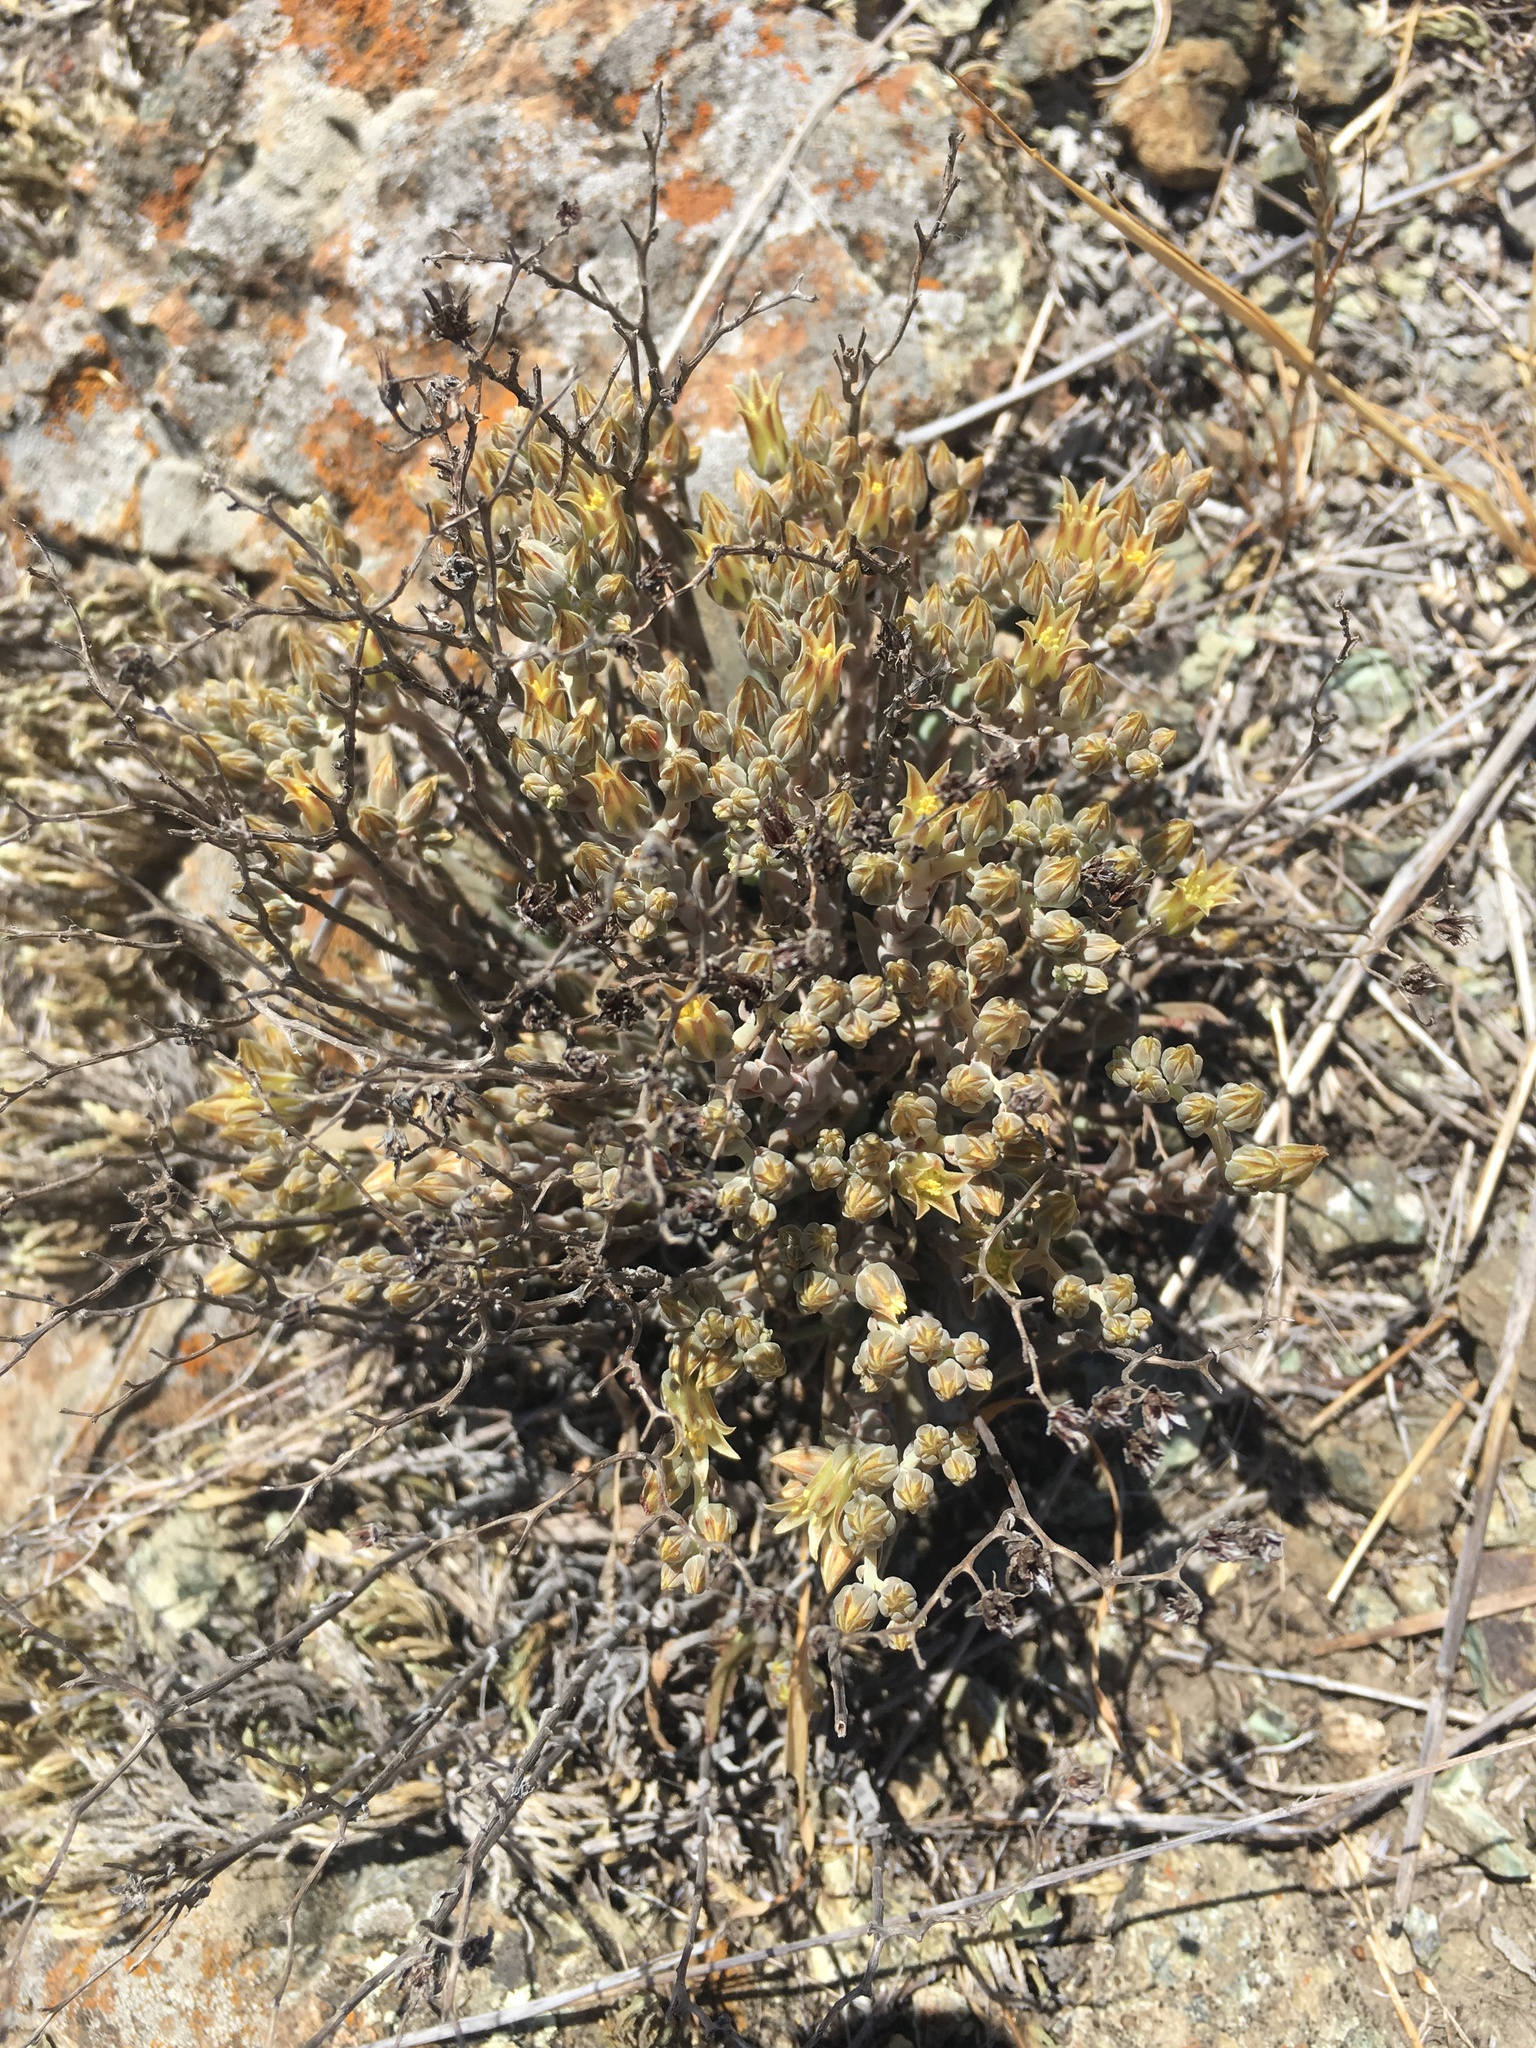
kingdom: Plantae
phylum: Tracheophyta
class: Magnoliopsida
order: Saxifragales
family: Crassulaceae
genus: Dudleya
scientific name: Dudleya abramsii
